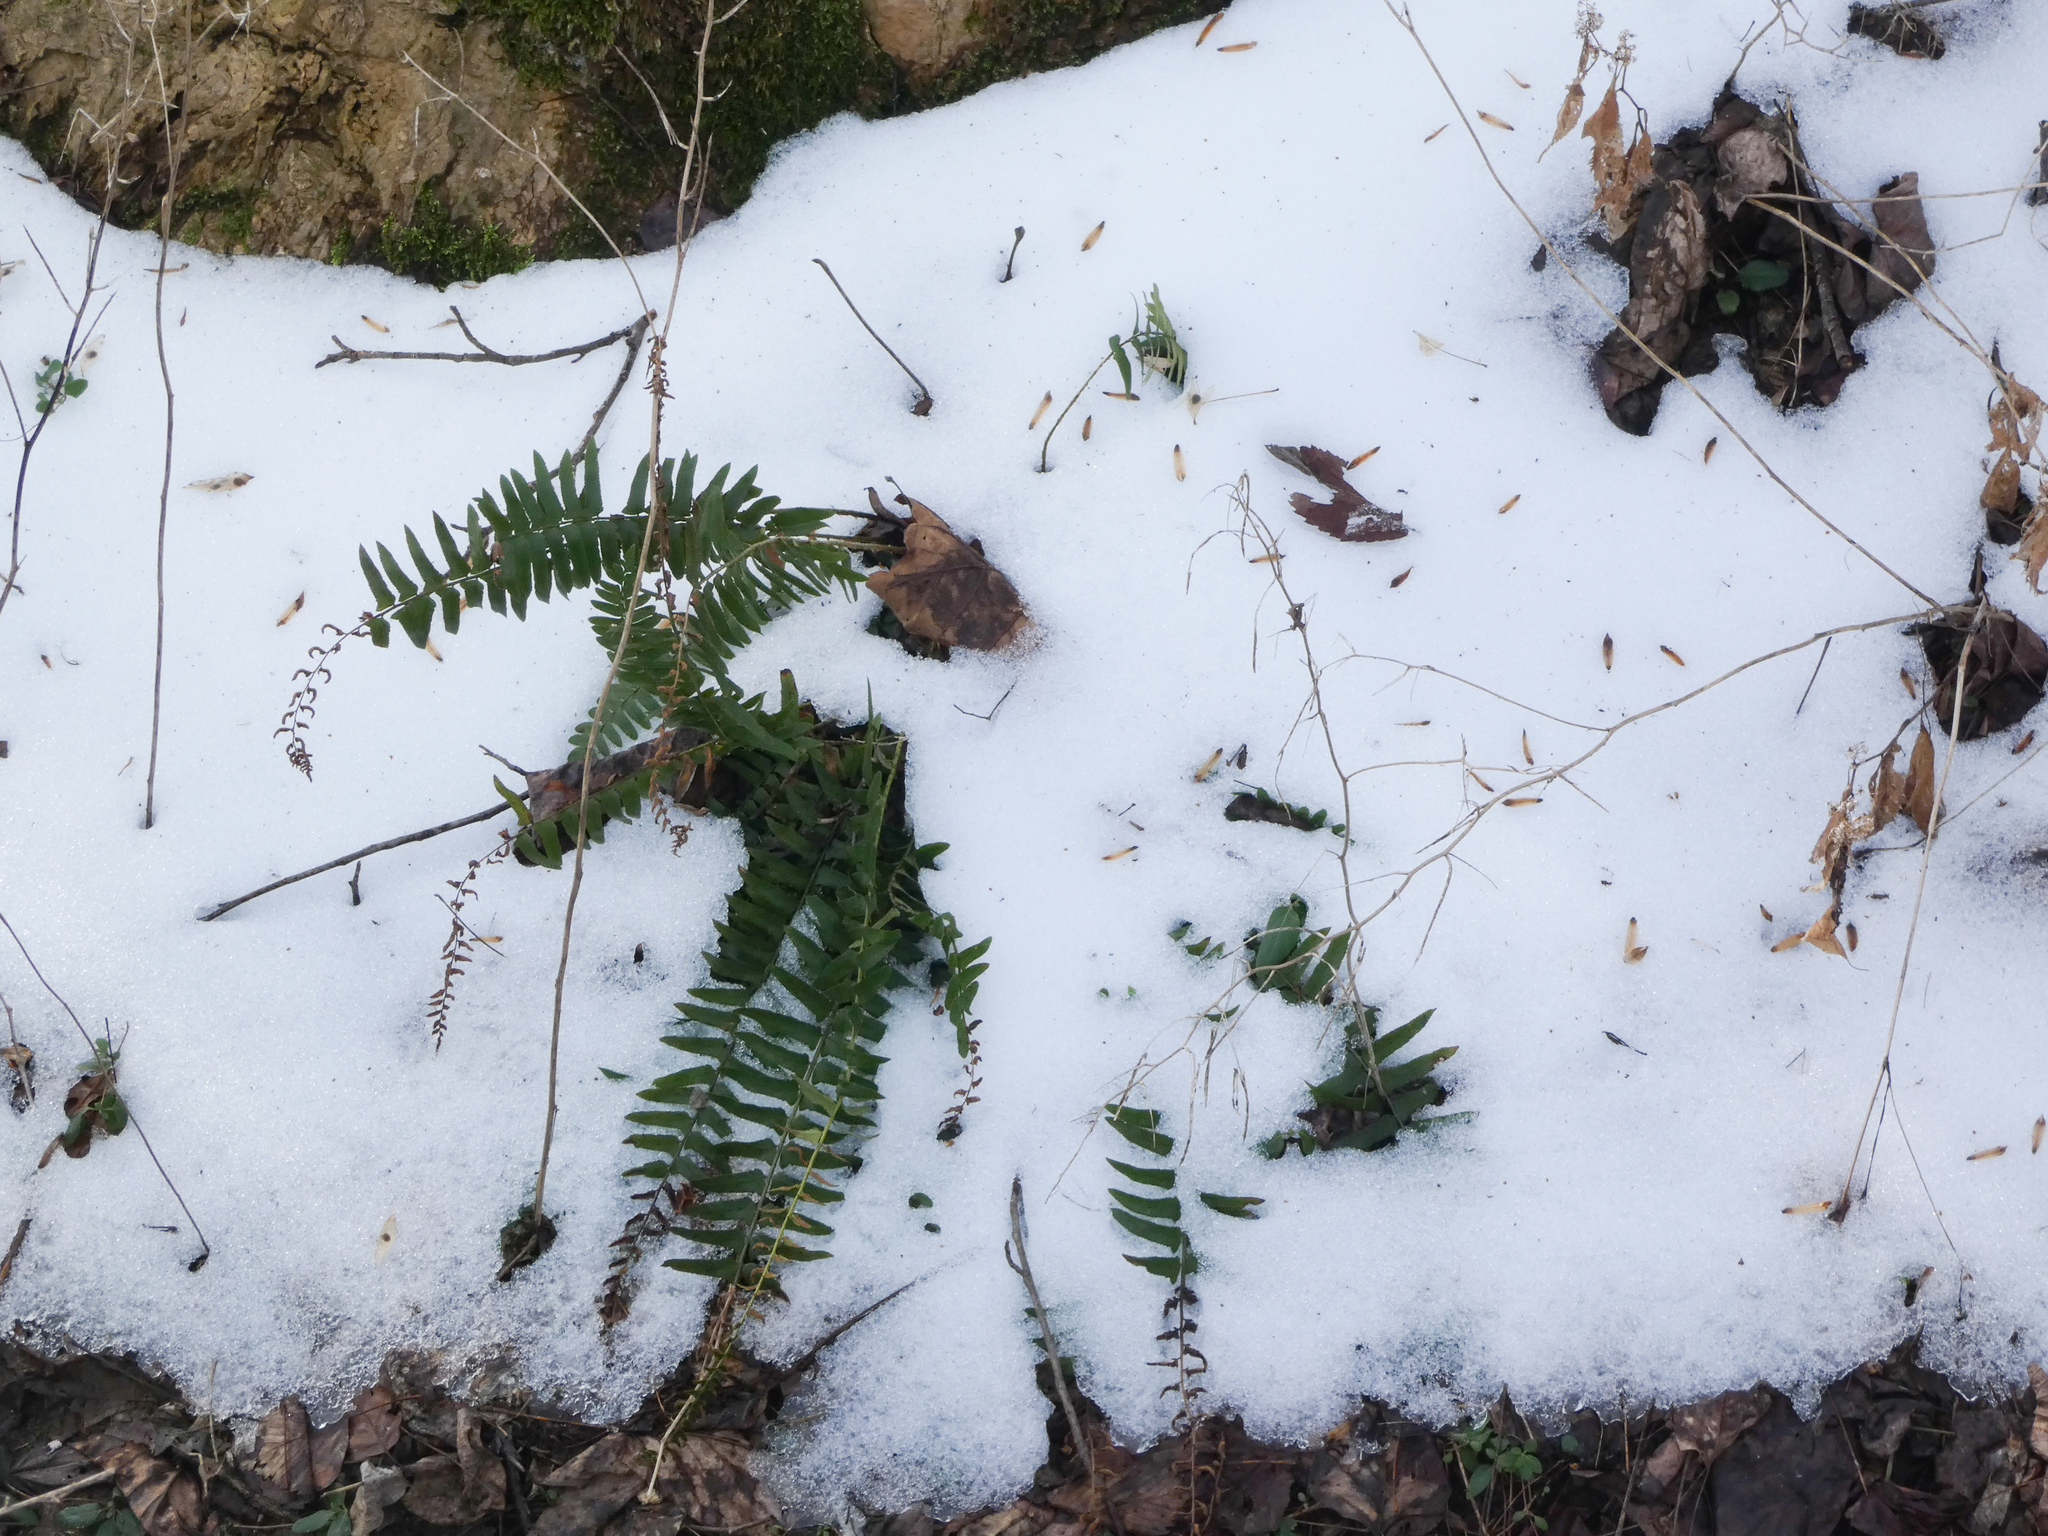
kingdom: Plantae
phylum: Tracheophyta
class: Polypodiopsida
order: Polypodiales
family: Dryopteridaceae
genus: Polystichum
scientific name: Polystichum acrostichoides
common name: Christmas fern
